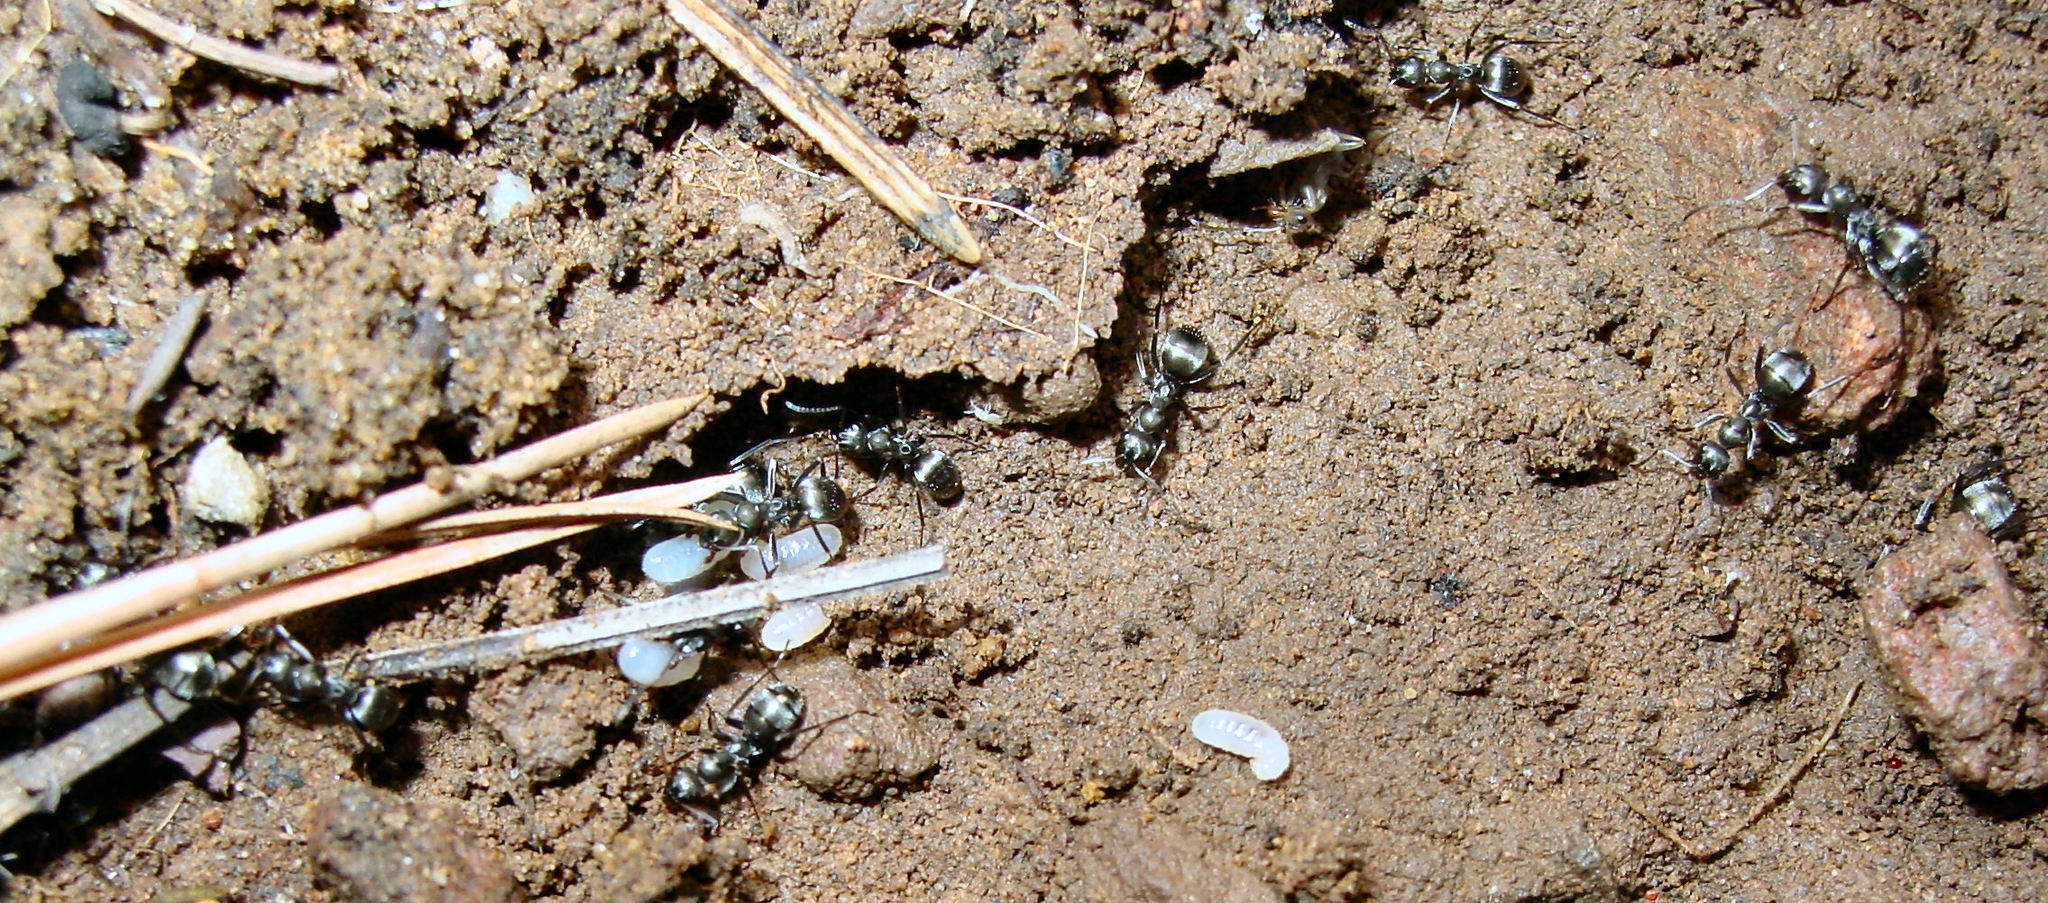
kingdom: Animalia
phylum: Arthropoda
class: Insecta
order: Hymenoptera
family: Formicidae
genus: Formica
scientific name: Formica occulta
